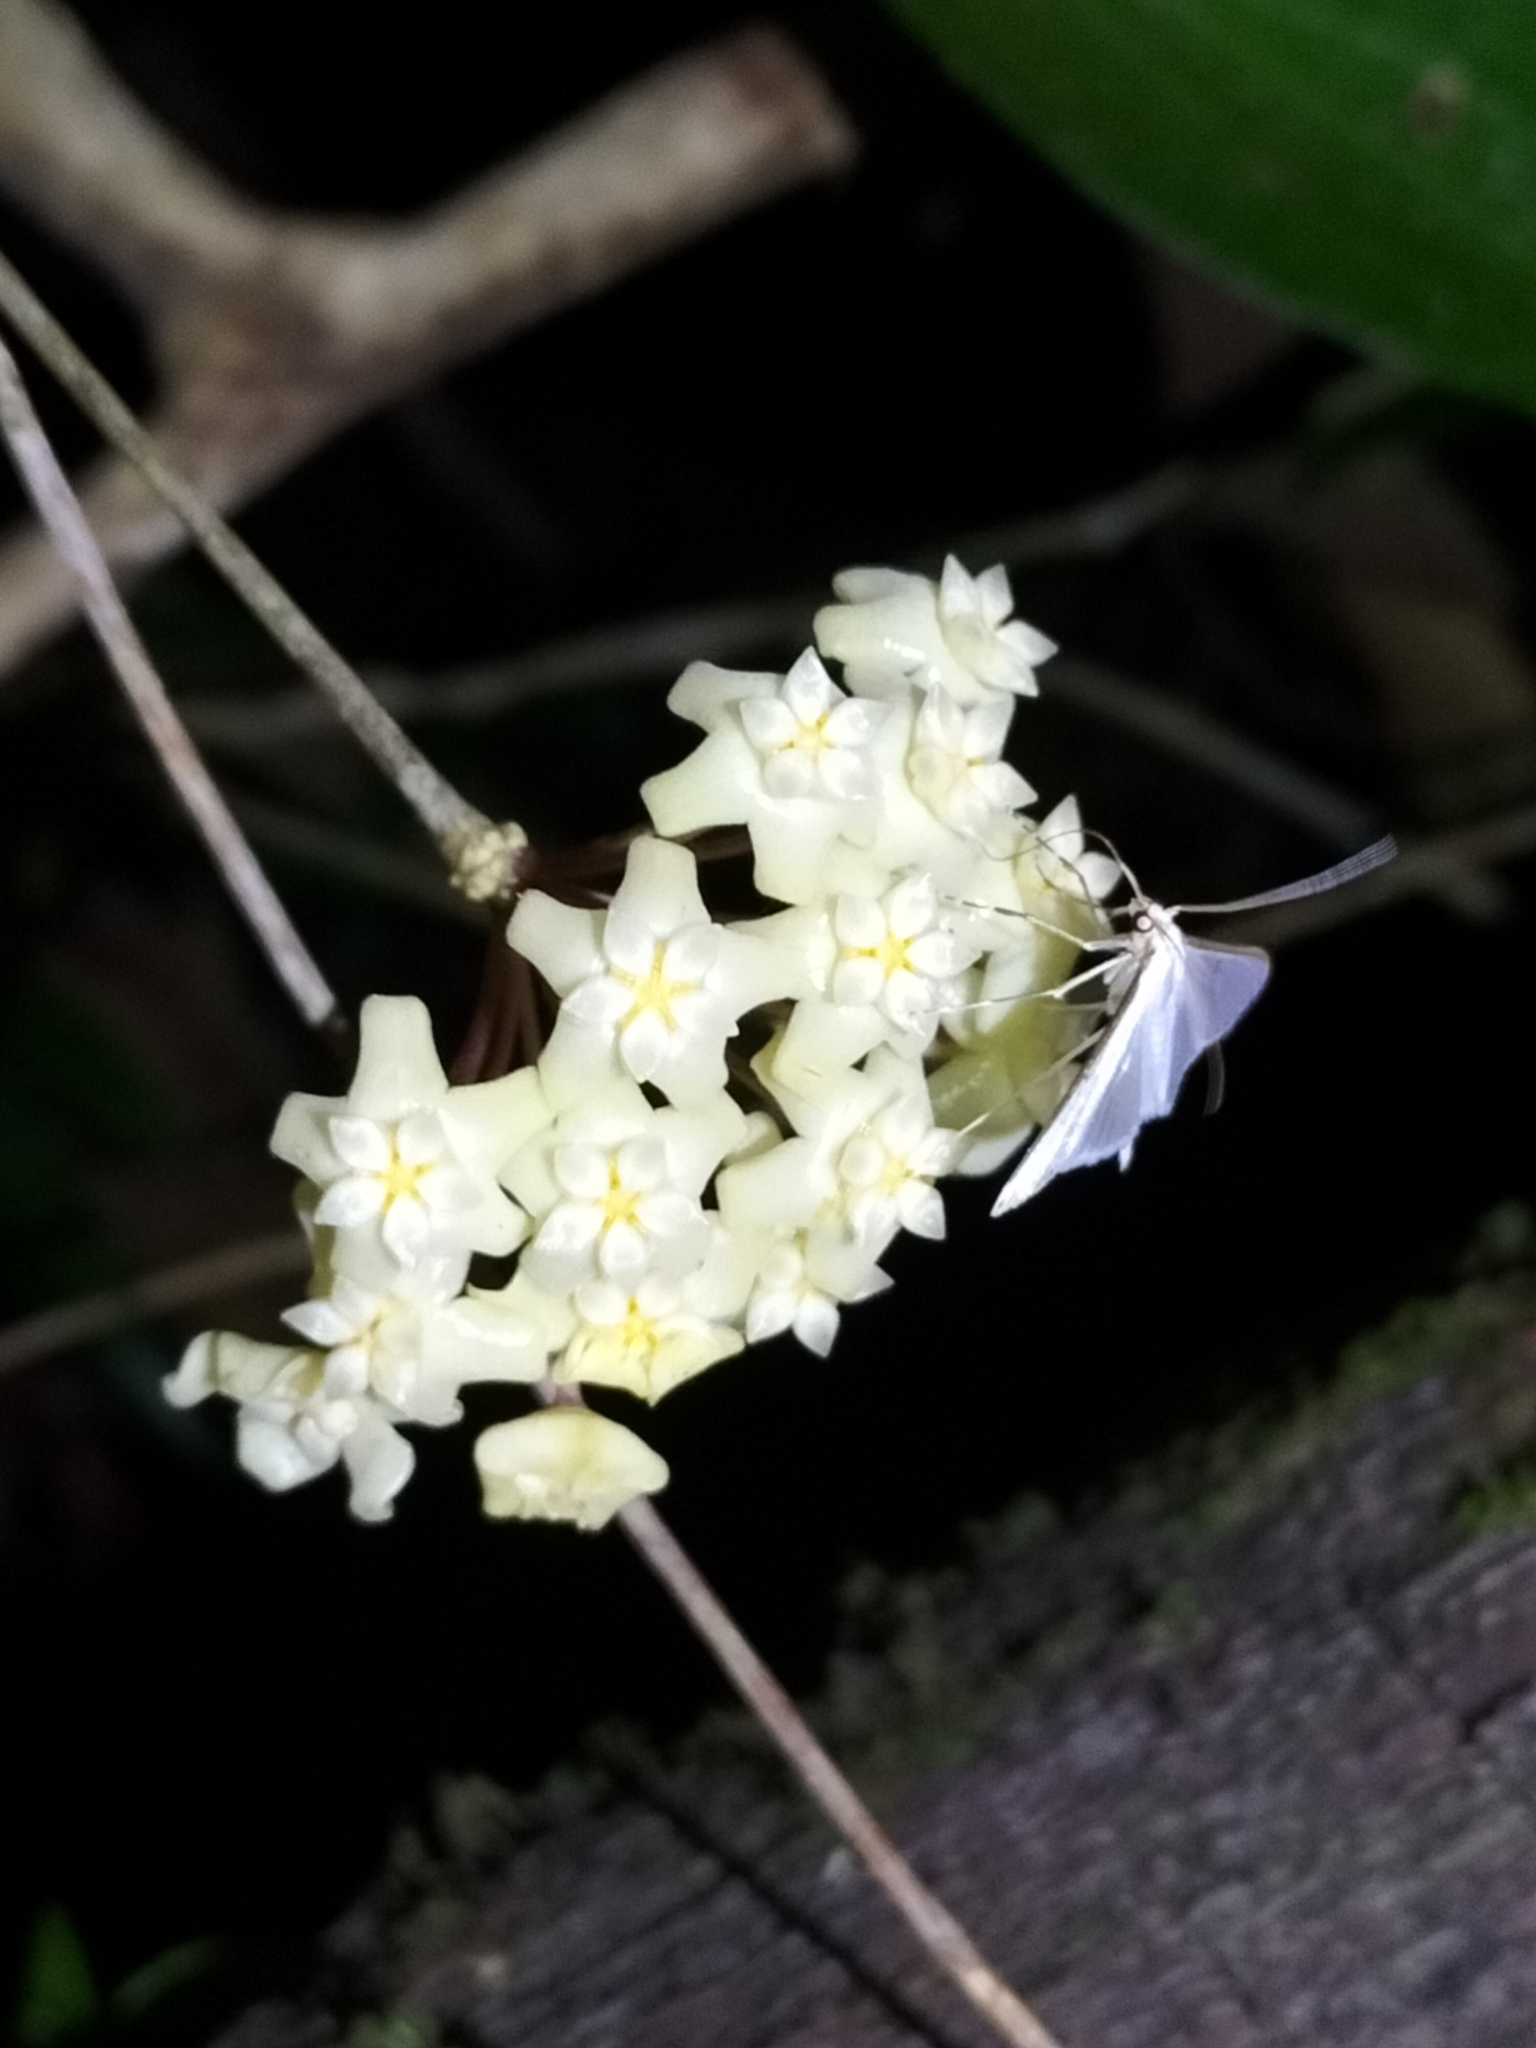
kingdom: Plantae
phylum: Tracheophyta
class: Magnoliopsida
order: Gentianales
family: Apocynaceae
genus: Hoya
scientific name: Hoya pottsii
